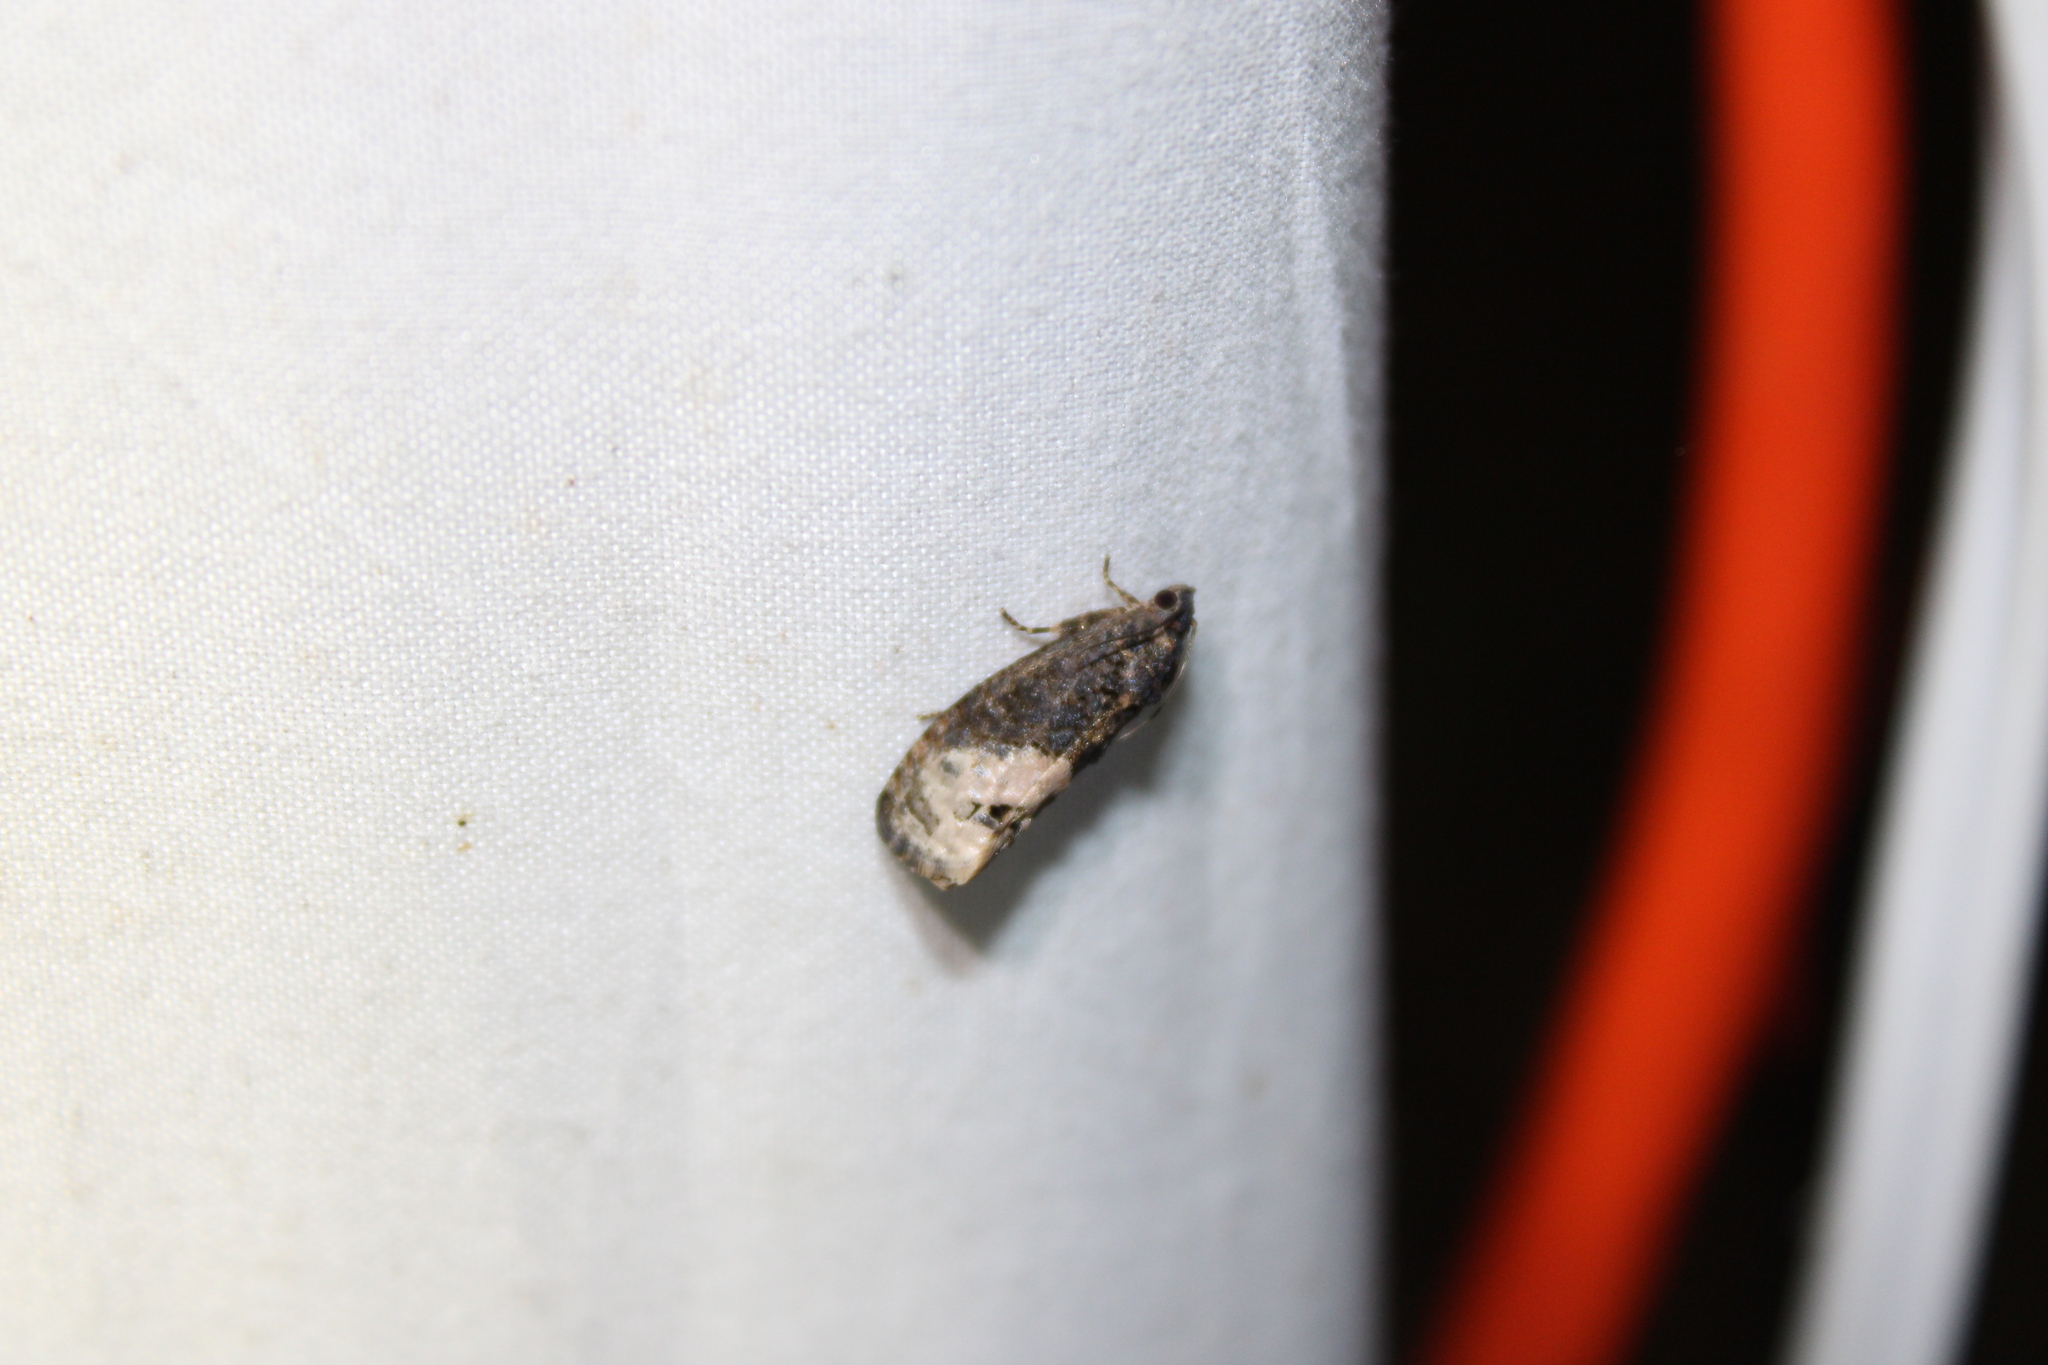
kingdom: Animalia
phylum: Arthropoda
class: Insecta
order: Lepidoptera
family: Tortricidae
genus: Ecdytolopha
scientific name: Ecdytolopha insiticiana
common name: Locust twig borer moth
